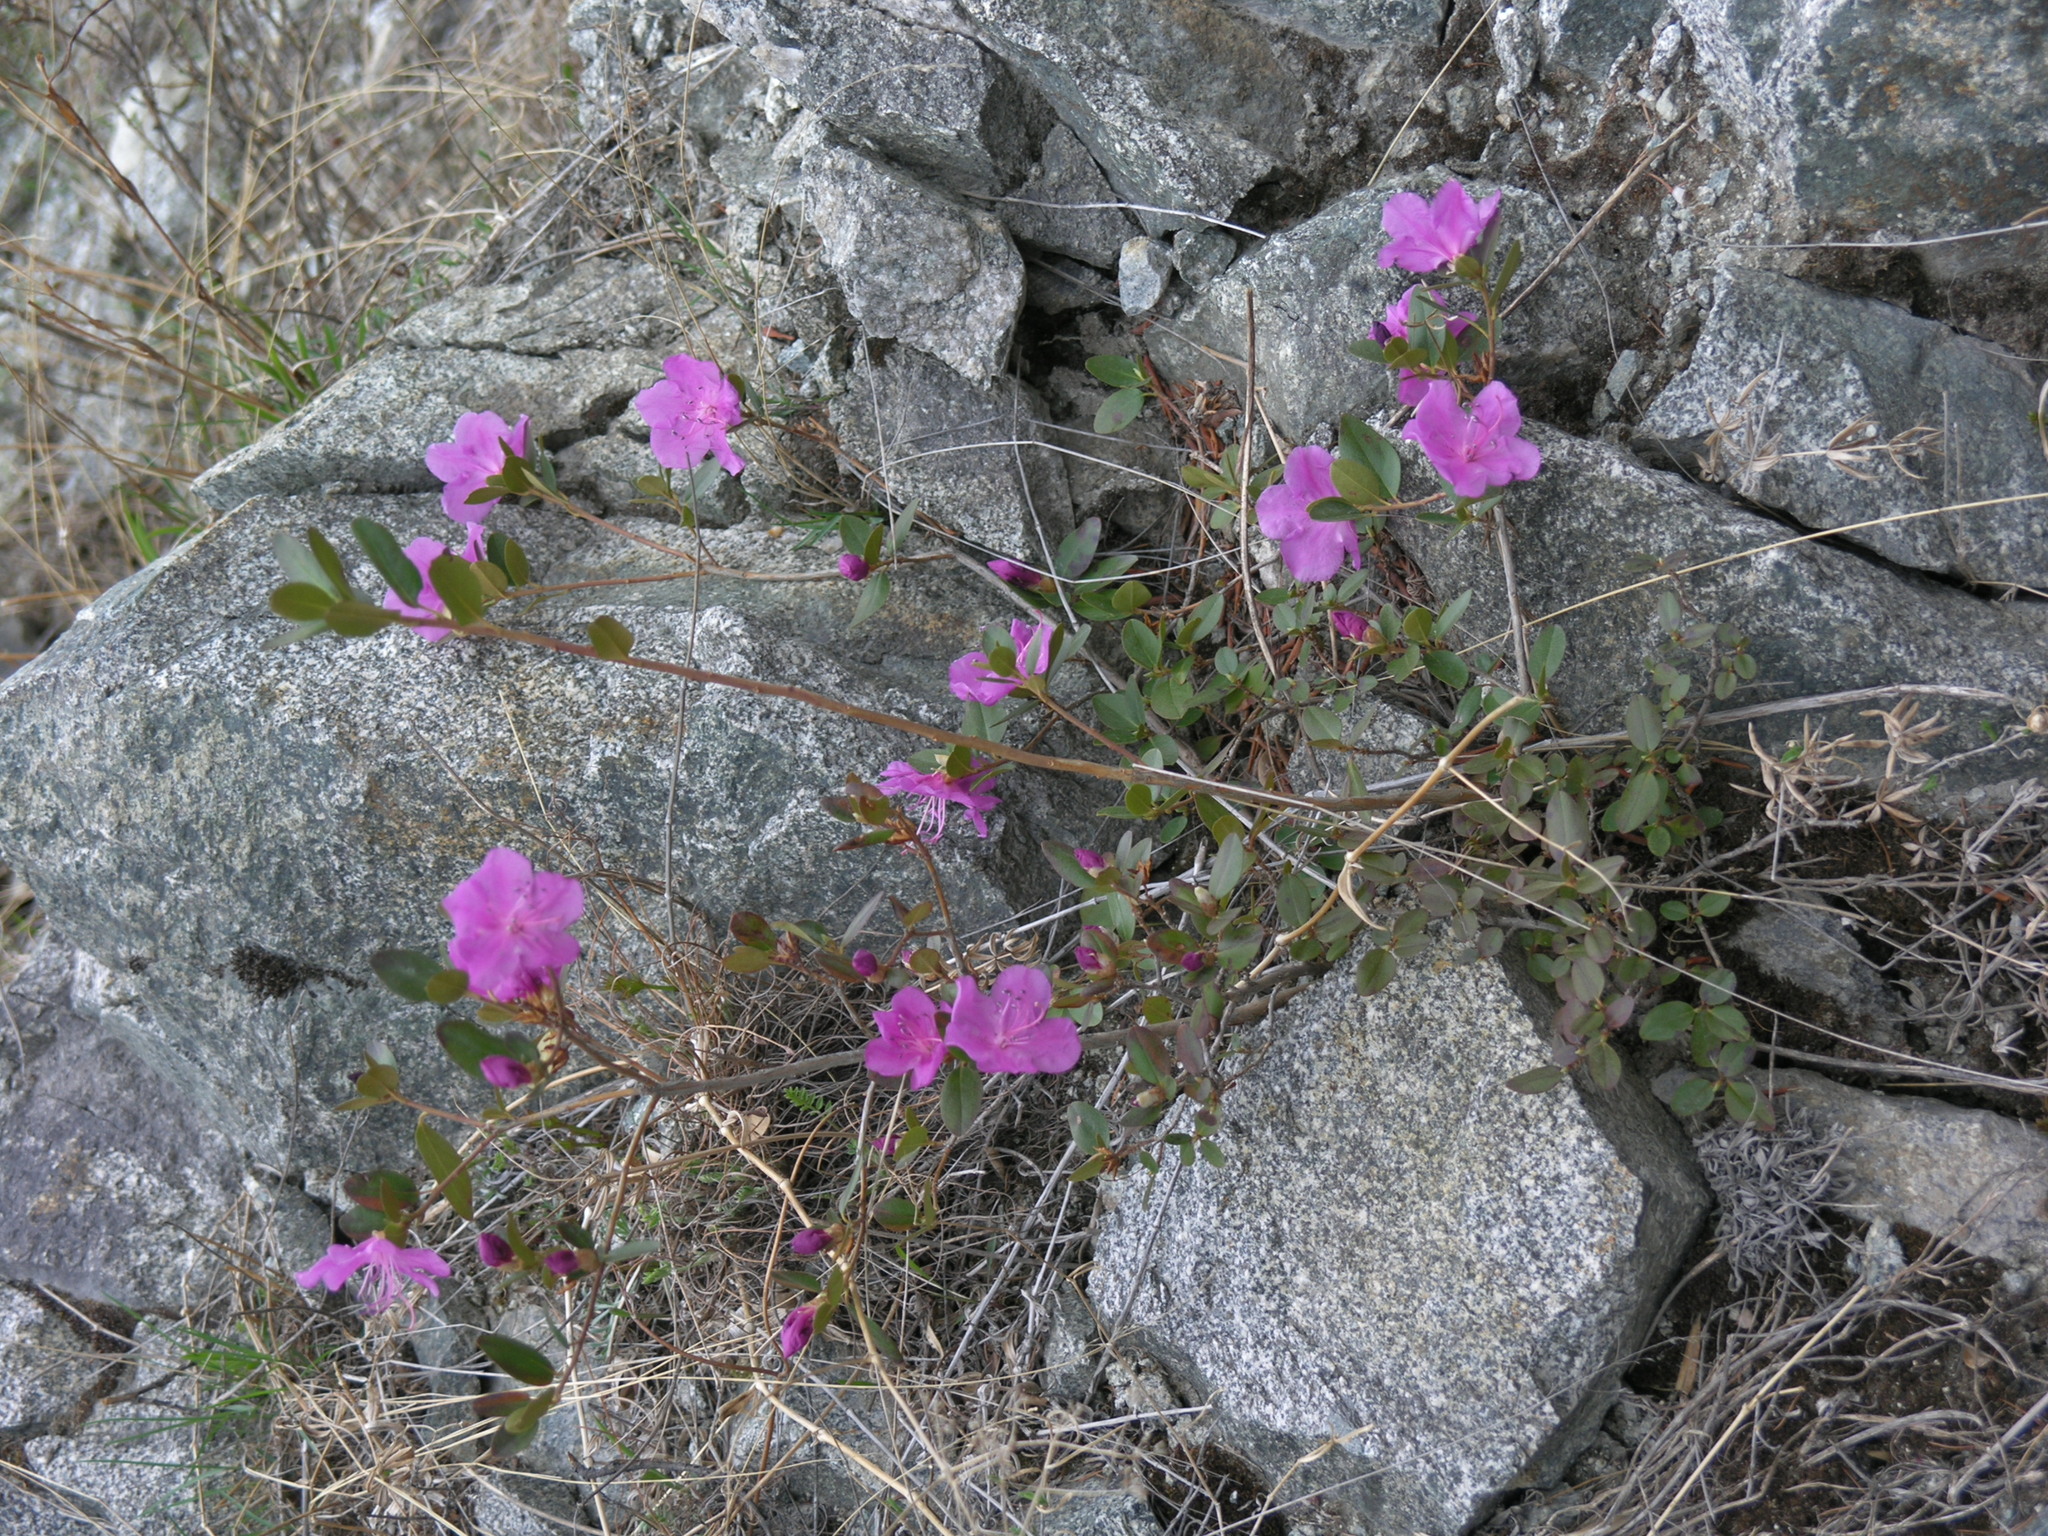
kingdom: Plantae
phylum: Tracheophyta
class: Magnoliopsida
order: Ericales
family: Ericaceae
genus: Rhododendron
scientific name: Rhododendron dauricum
